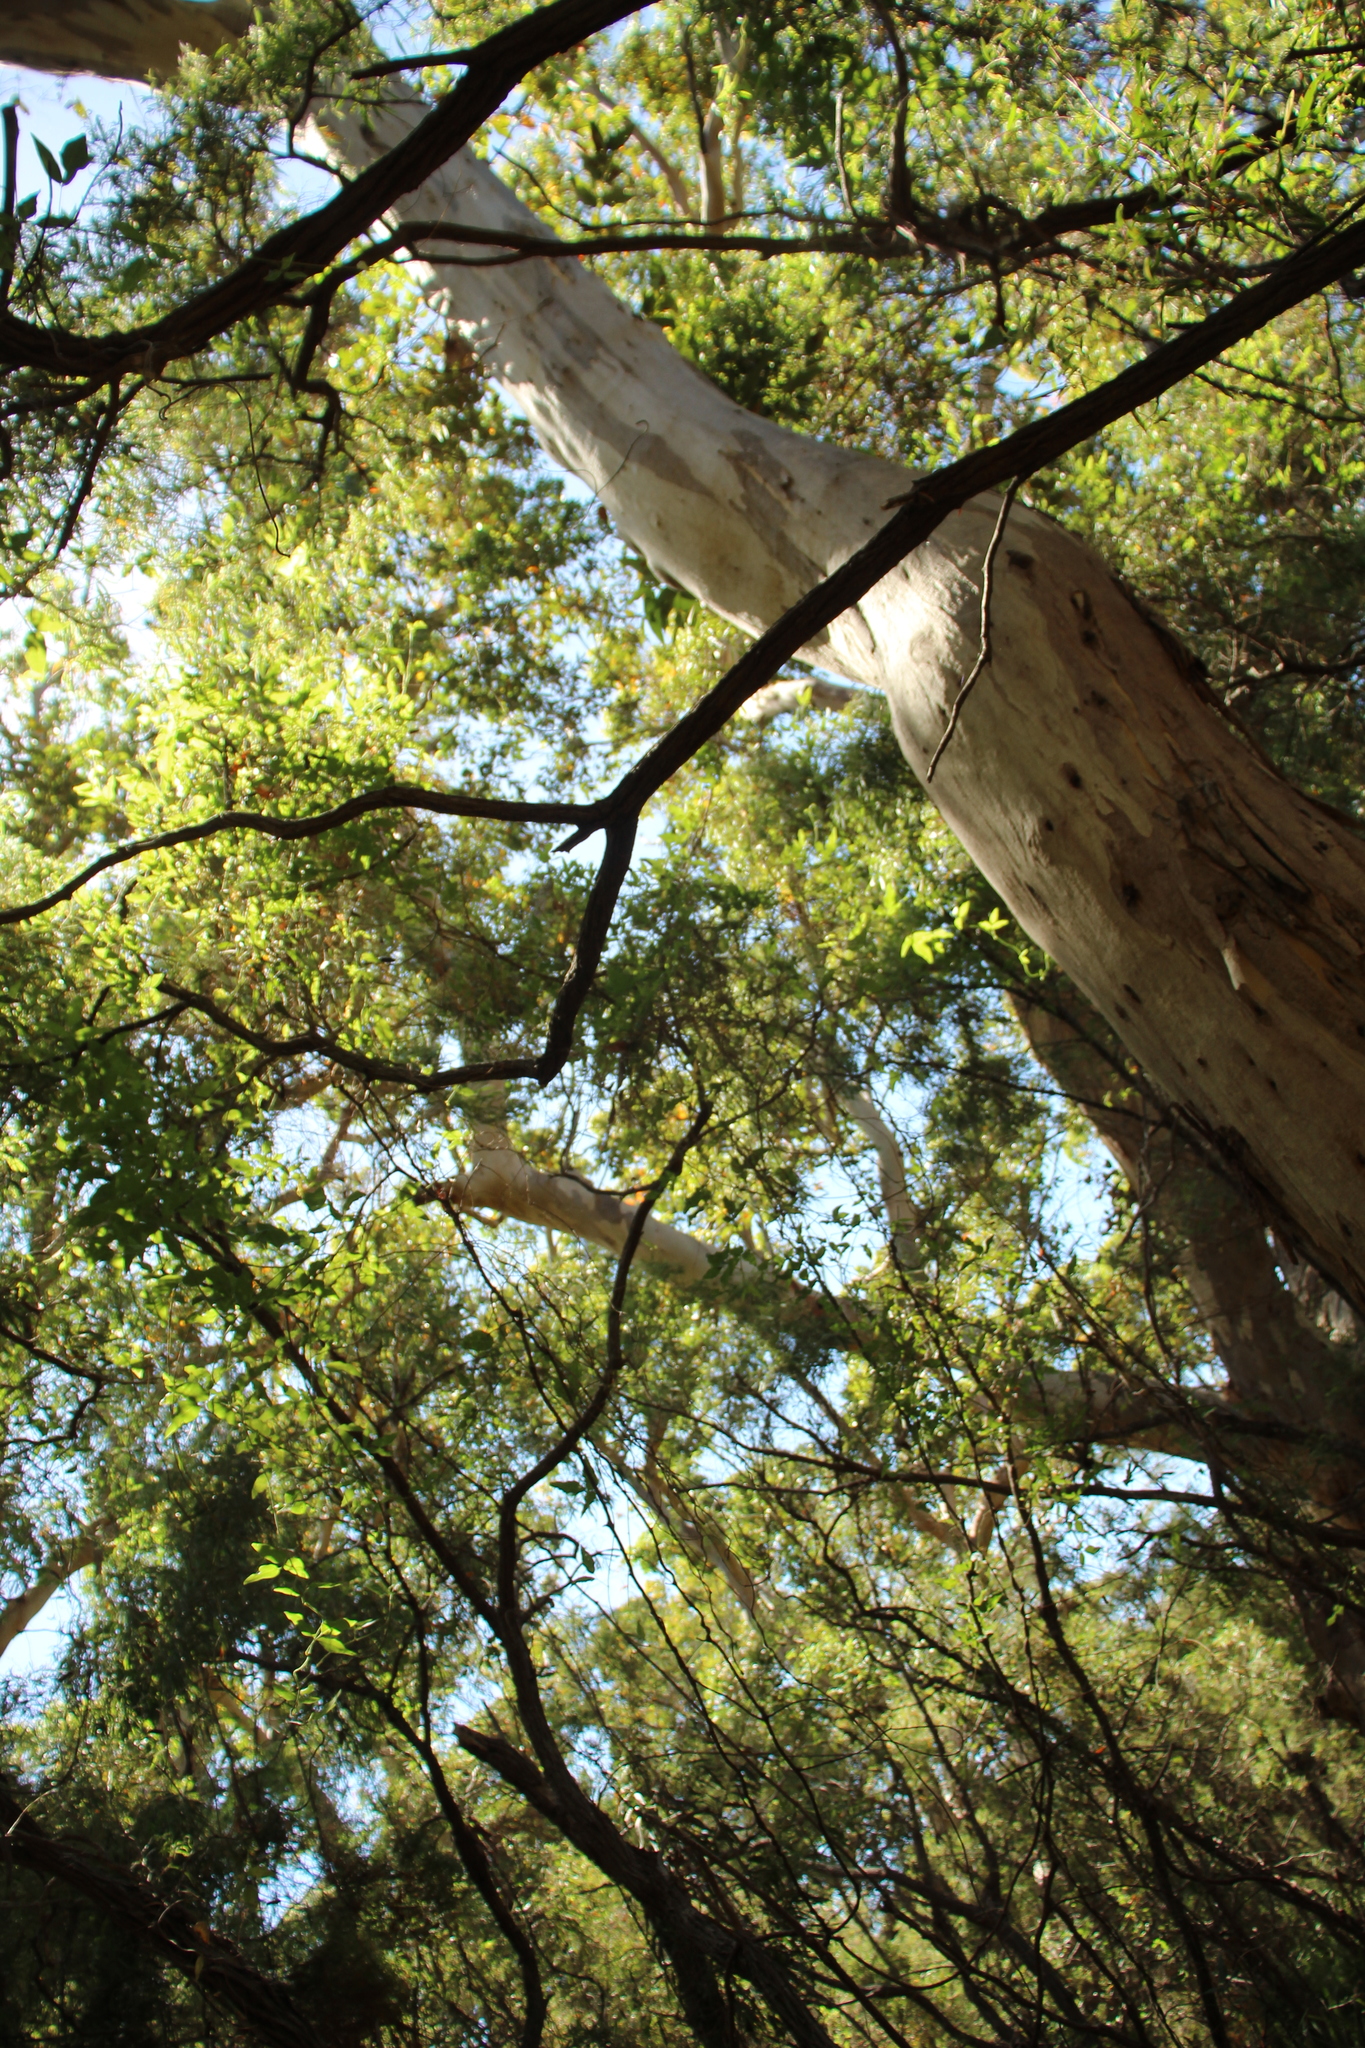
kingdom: Plantae
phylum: Tracheophyta
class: Magnoliopsida
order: Myrtales
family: Myrtaceae
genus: Eucalyptus
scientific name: Eucalyptus diversicolor
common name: Karri
